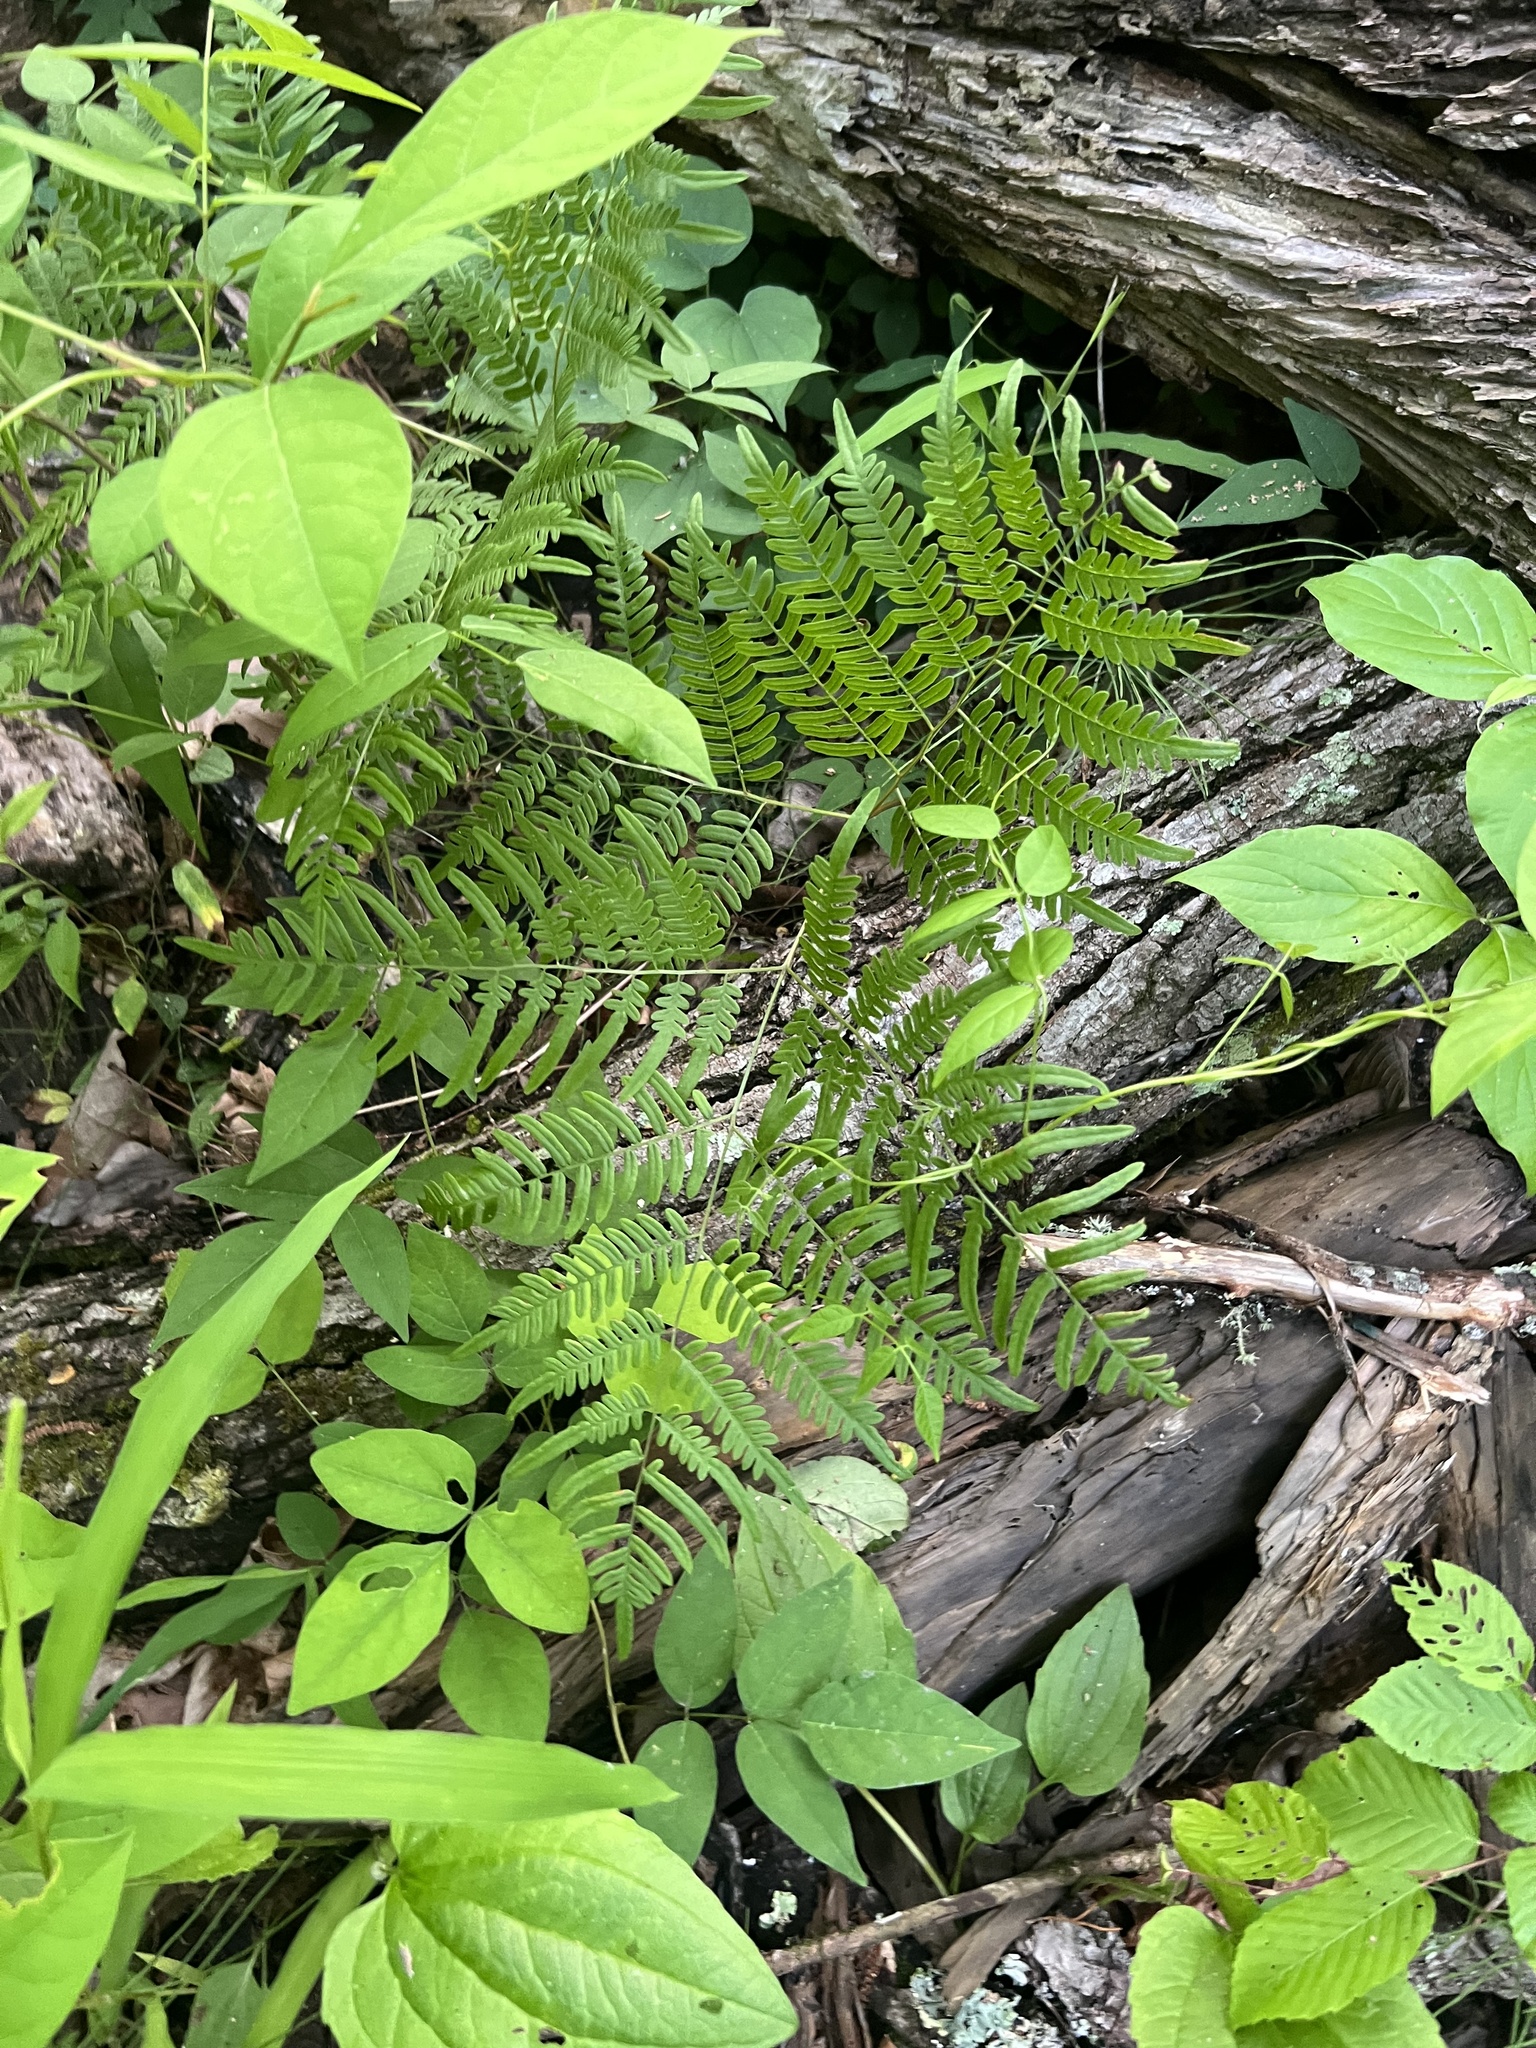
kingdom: Plantae
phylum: Tracheophyta
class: Polypodiopsida
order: Polypodiales
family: Dennstaedtiaceae
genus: Pteridium
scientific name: Pteridium aquilinum
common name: Bracken
